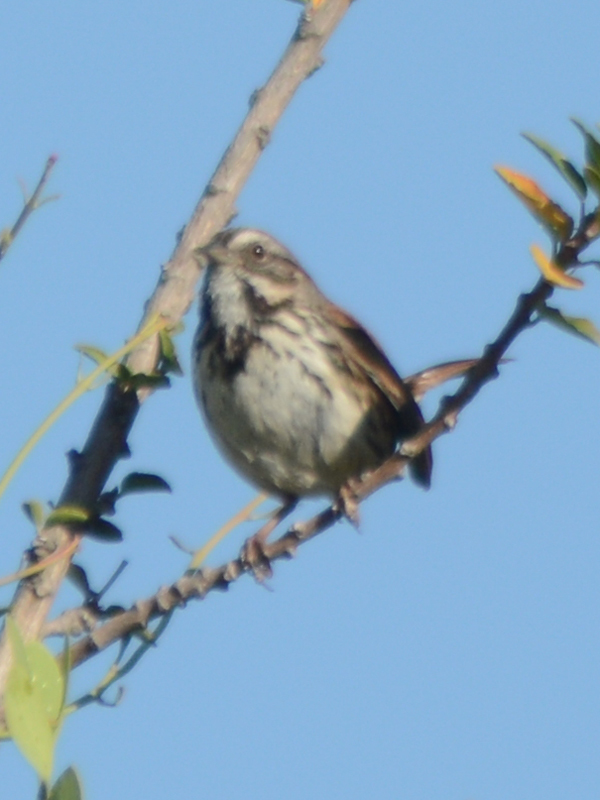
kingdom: Animalia
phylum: Chordata
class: Aves
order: Passeriformes
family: Passerellidae
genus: Melospiza
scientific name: Melospiza melodia
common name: Song sparrow
